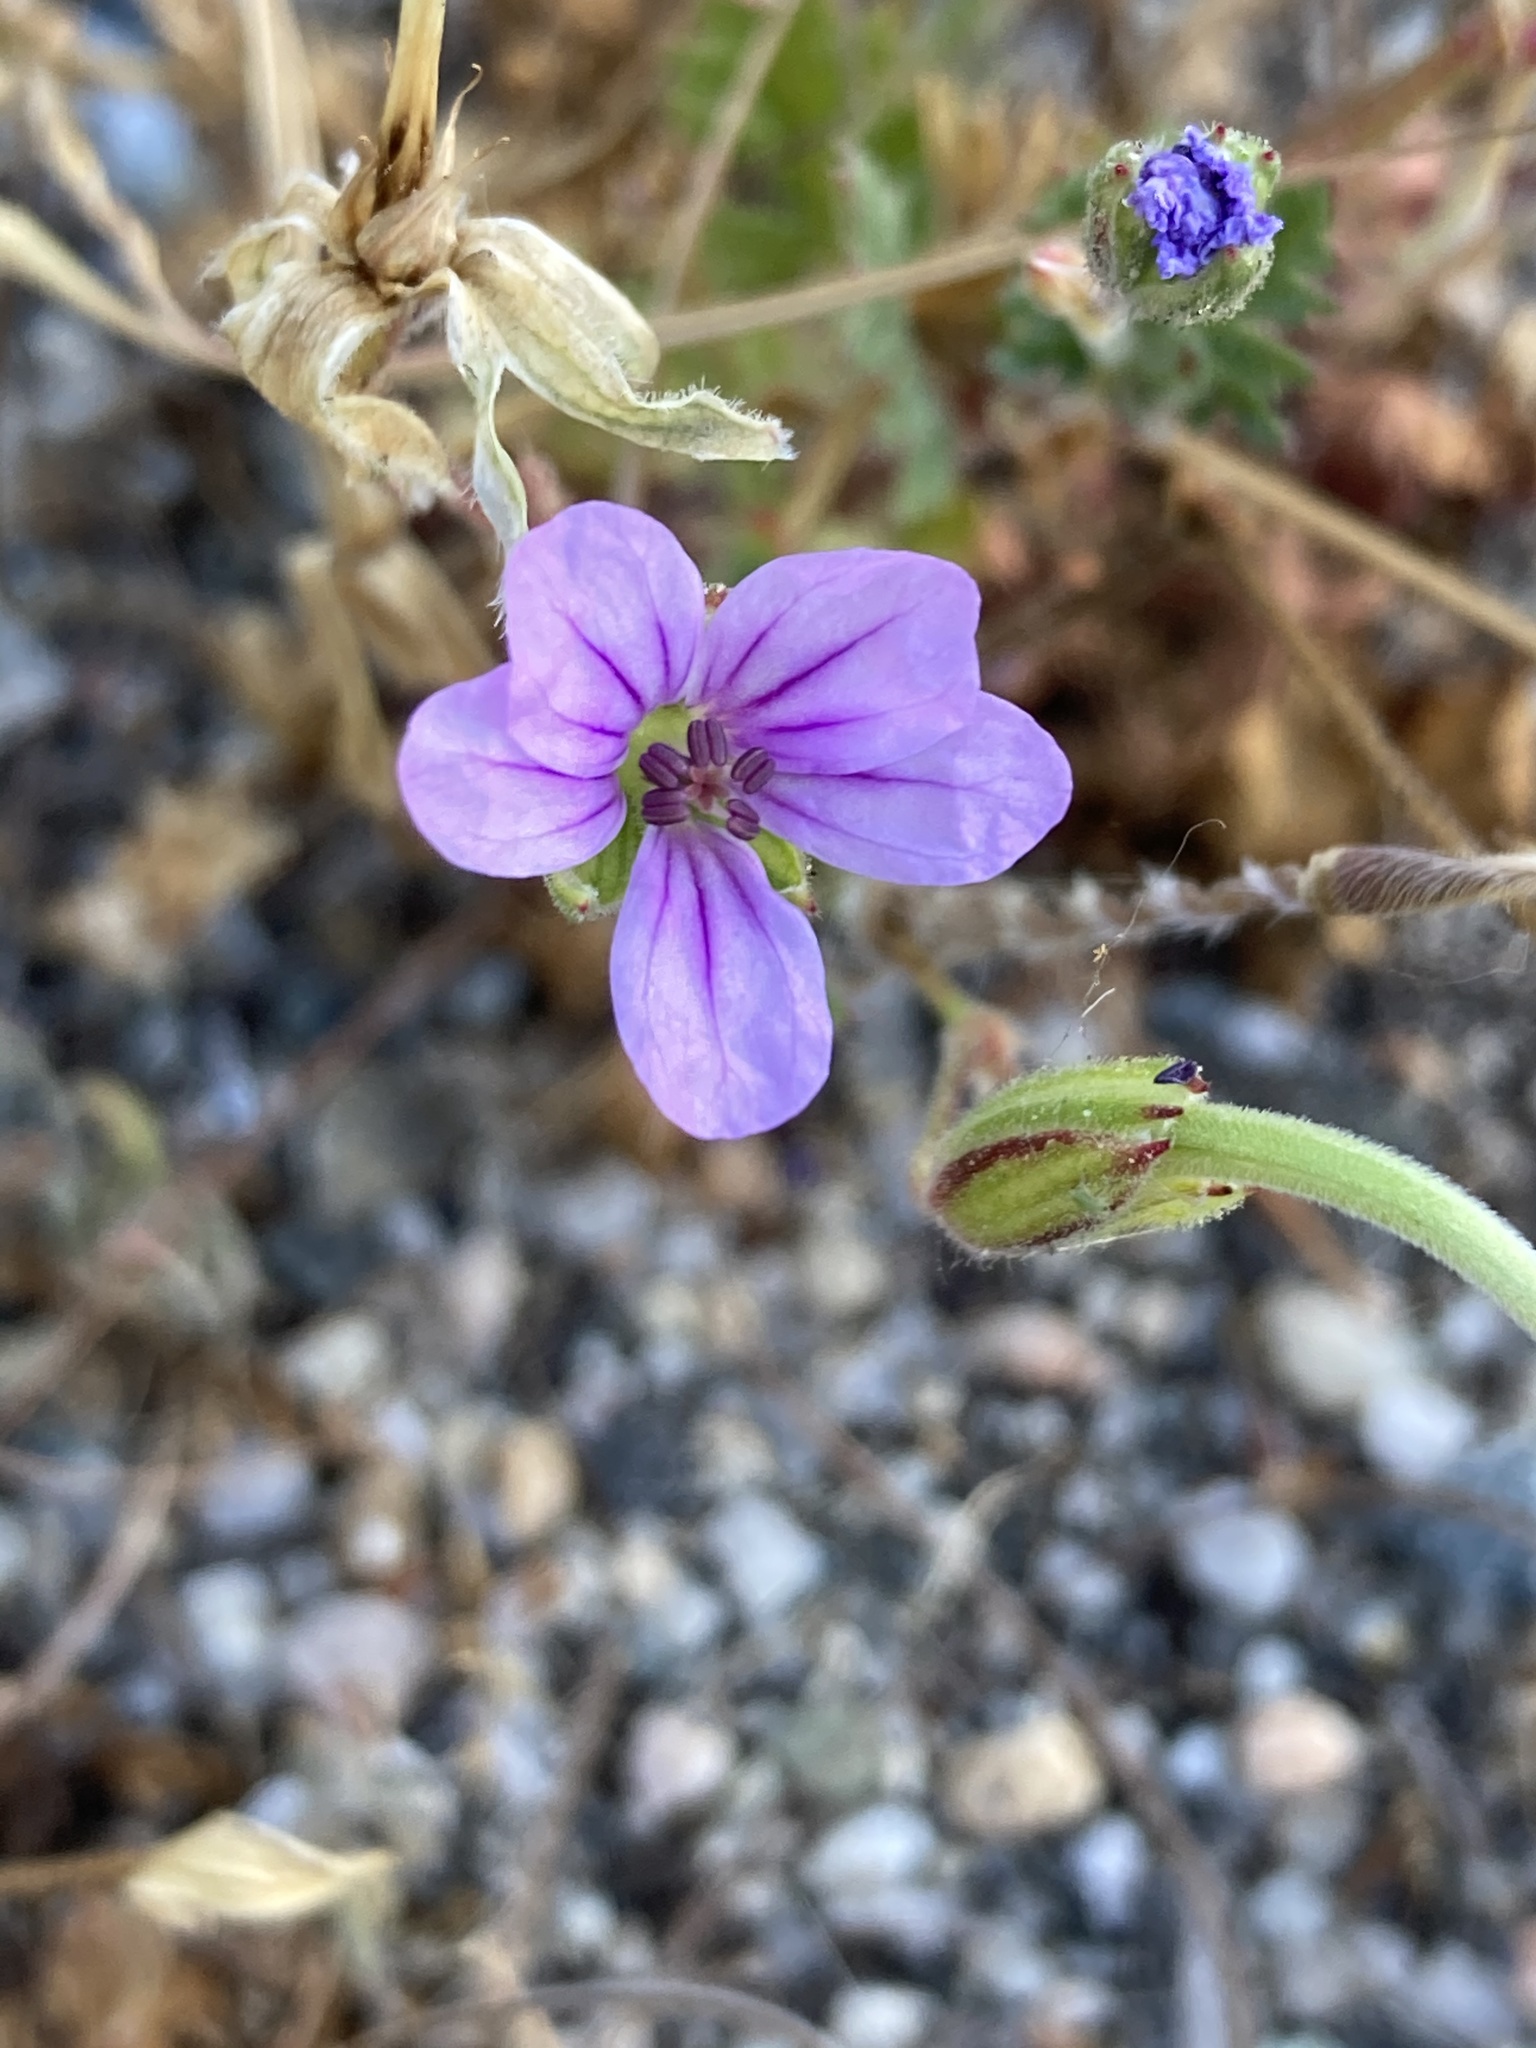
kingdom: Plantae
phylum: Tracheophyta
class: Magnoliopsida
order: Geraniales
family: Geraniaceae
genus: Erodium
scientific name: Erodium botrys
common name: Mediterranean stork's-bill
